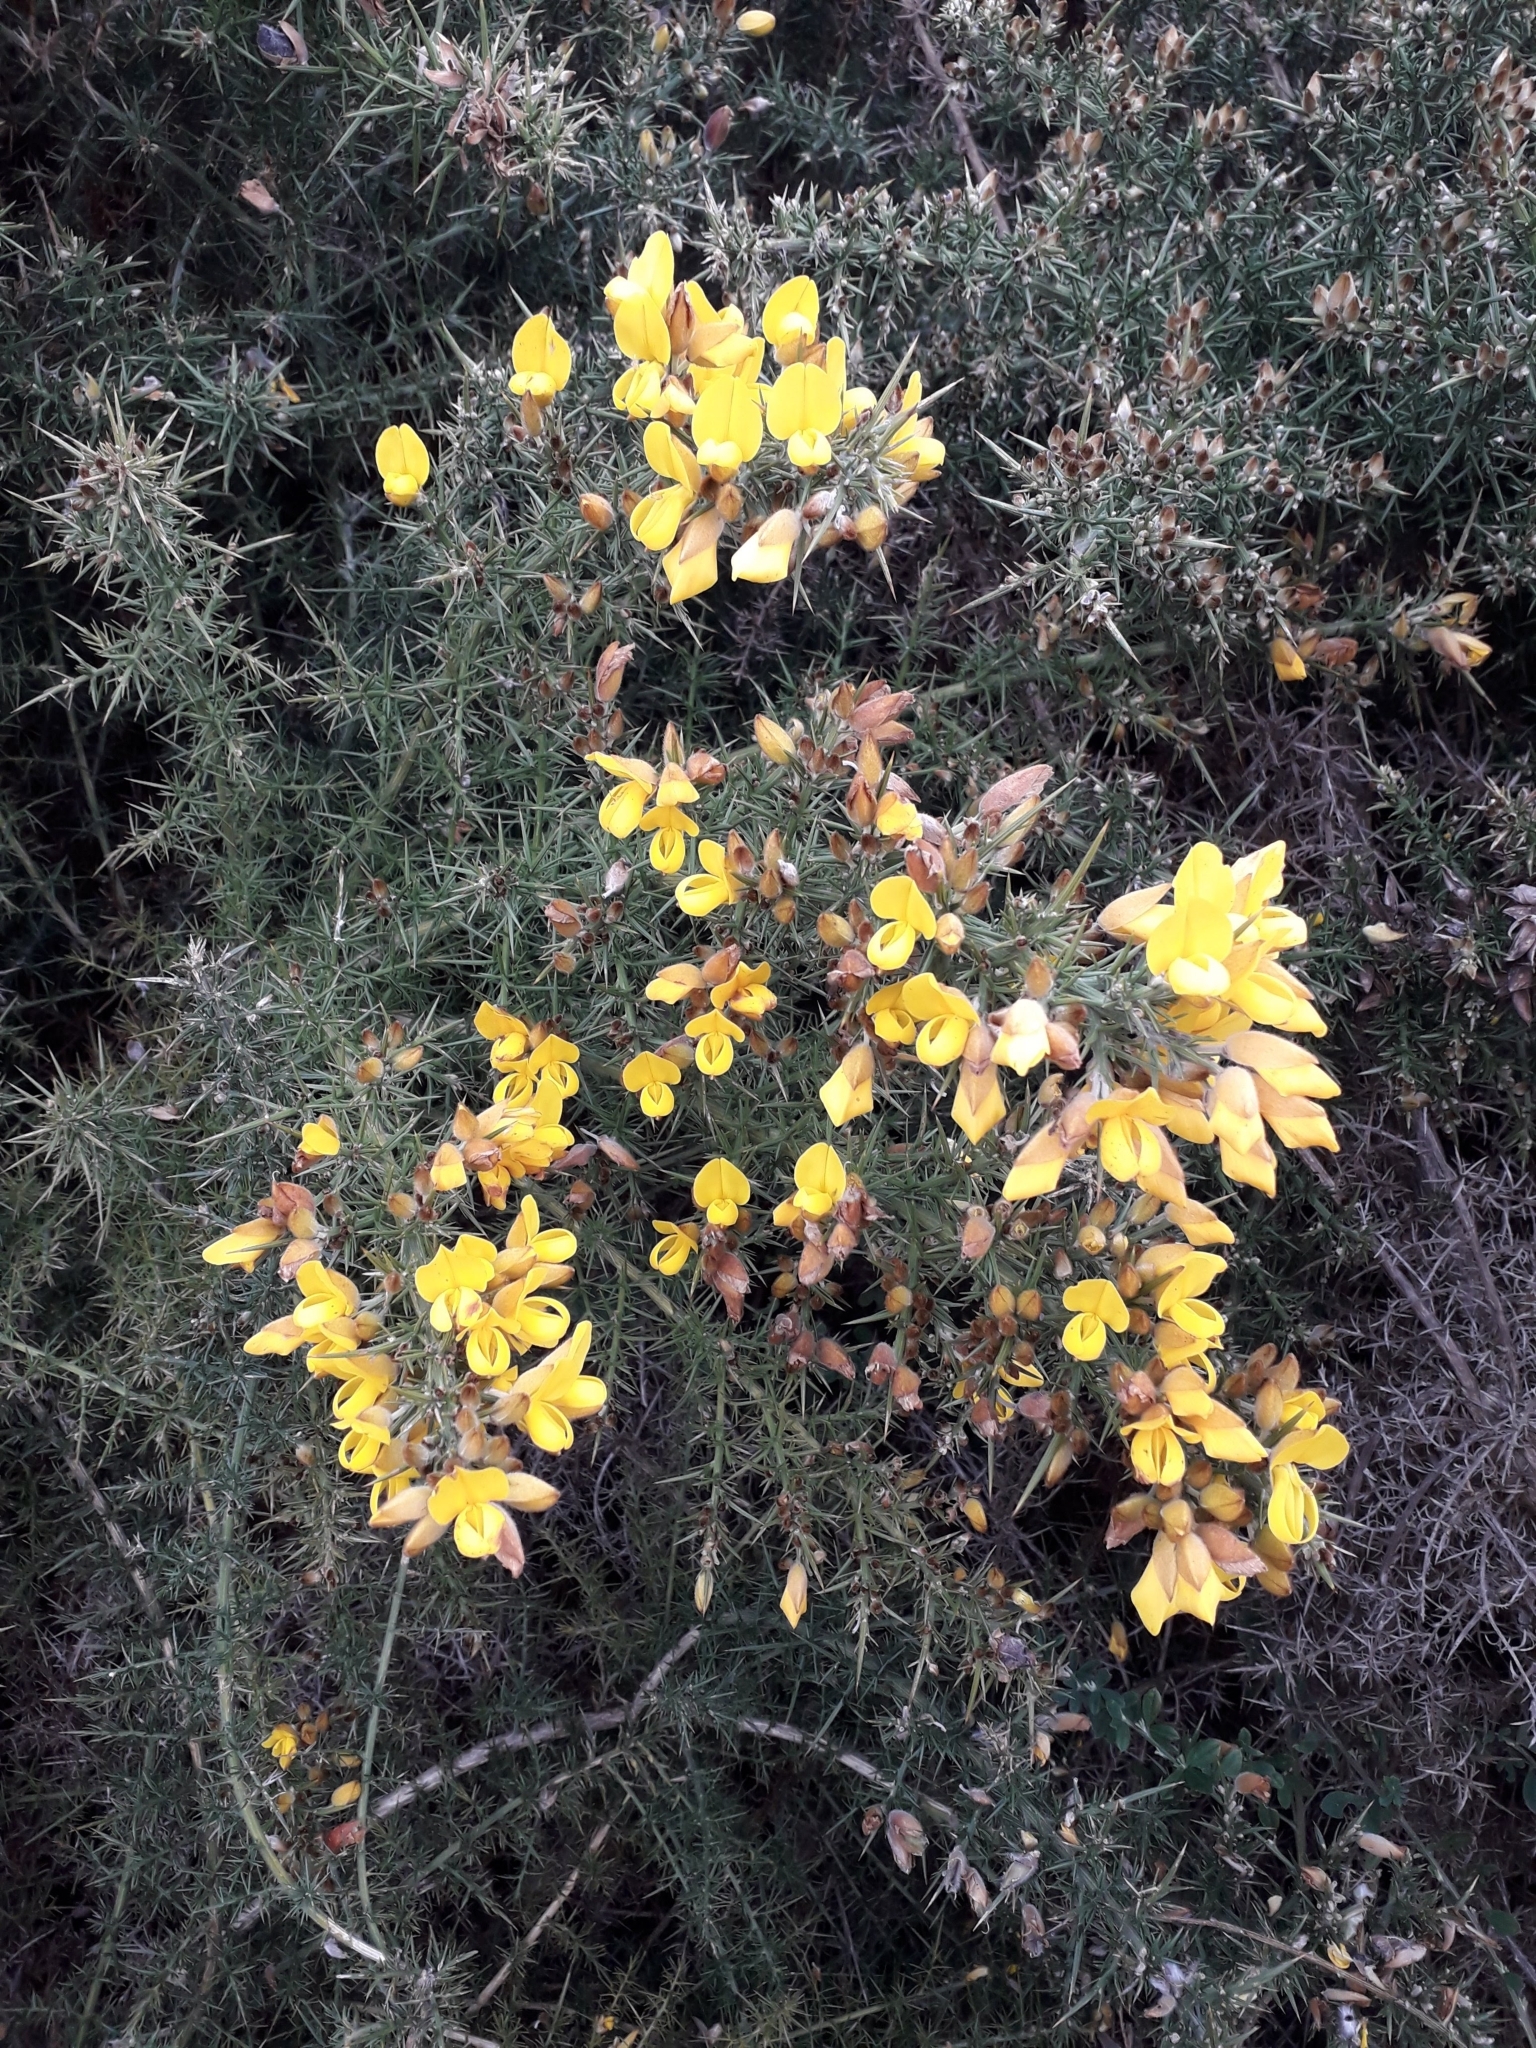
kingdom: Plantae
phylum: Tracheophyta
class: Magnoliopsida
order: Fabales
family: Fabaceae
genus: Ulex
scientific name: Ulex europaeus
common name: Common gorse
